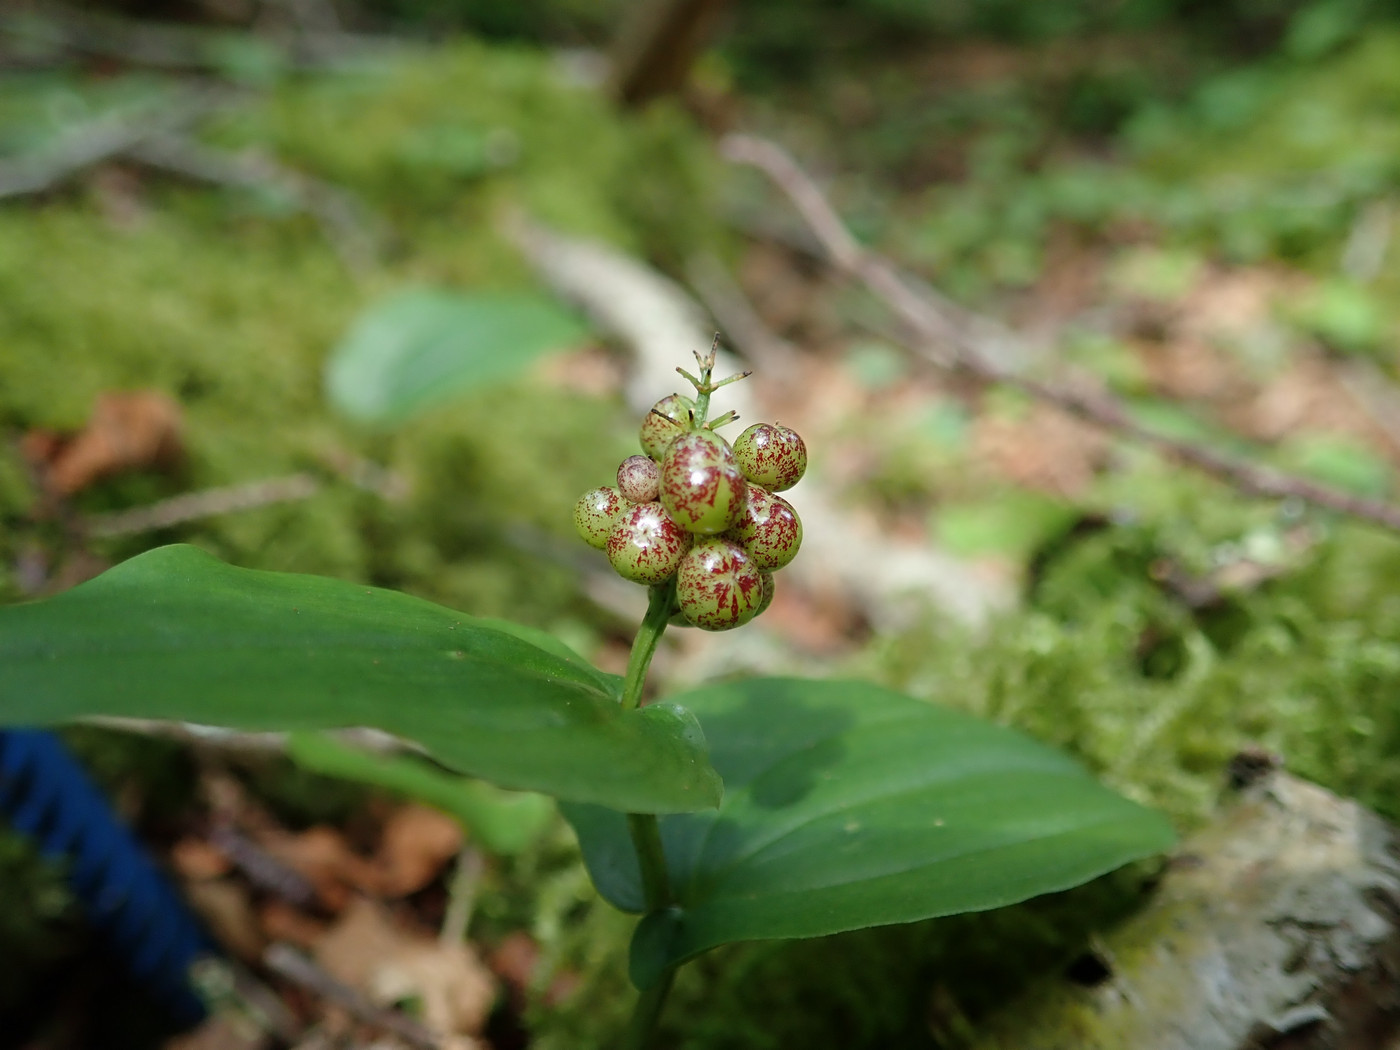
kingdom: Plantae
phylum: Tracheophyta
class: Liliopsida
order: Asparagales
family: Asparagaceae
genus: Maianthemum
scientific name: Maianthemum canadense
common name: False lily-of-the-valley
